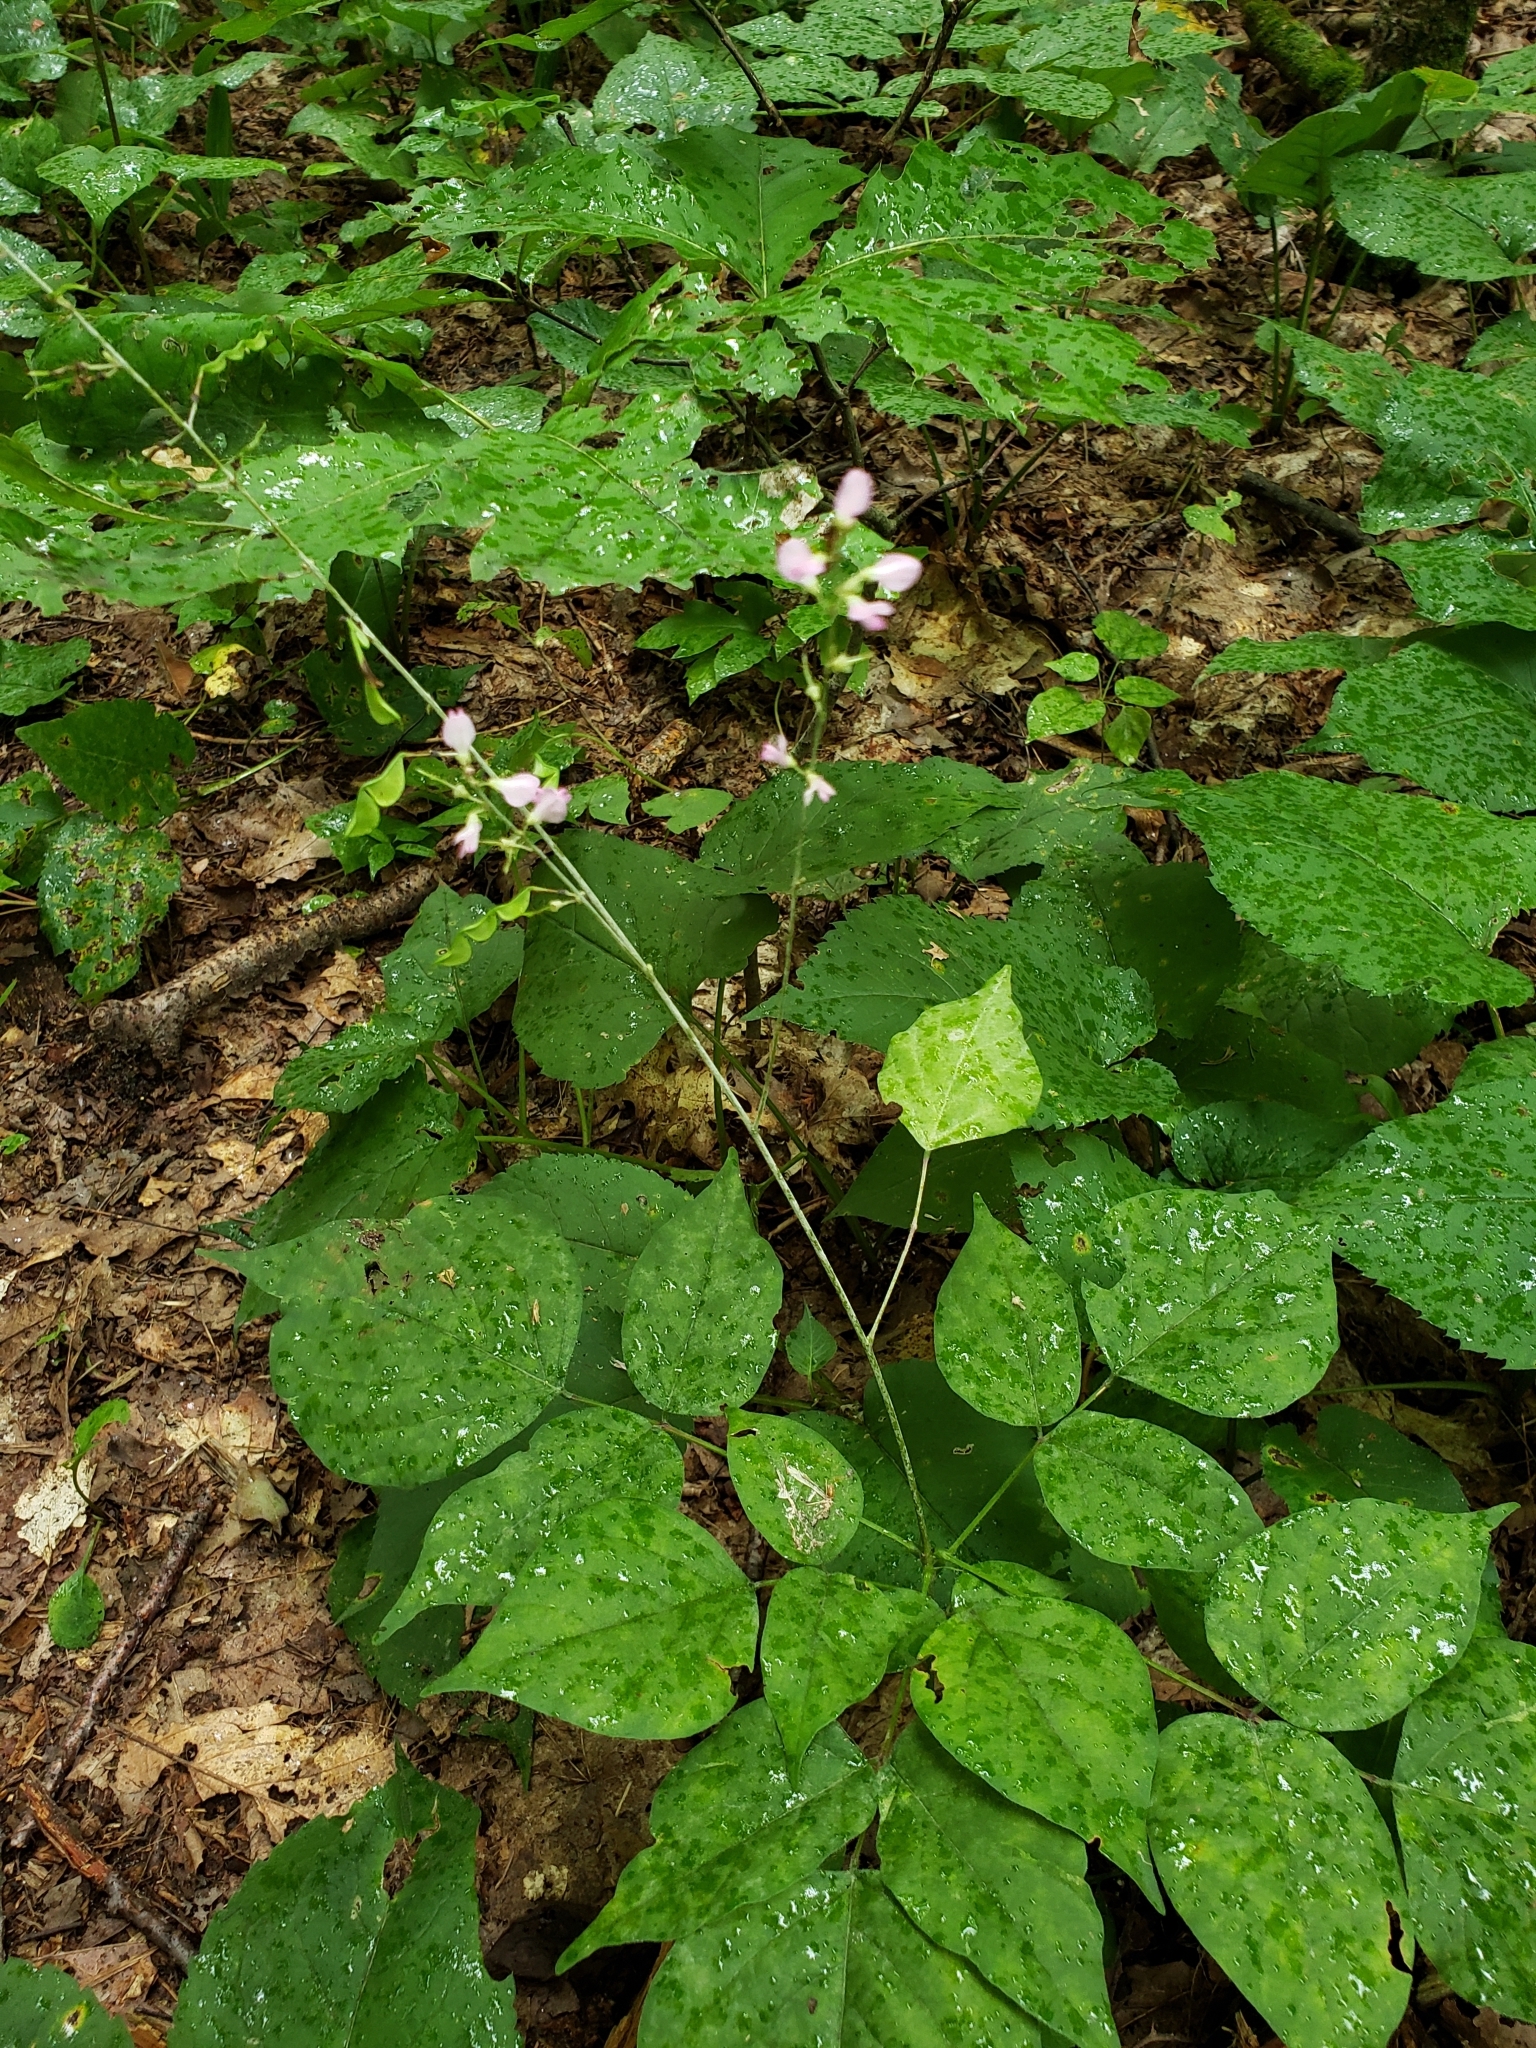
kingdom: Plantae
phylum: Tracheophyta
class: Magnoliopsida
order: Fabales
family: Fabaceae
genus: Hylodesmum
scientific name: Hylodesmum glutinosum
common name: Clustered-leaved tick-trefoil
